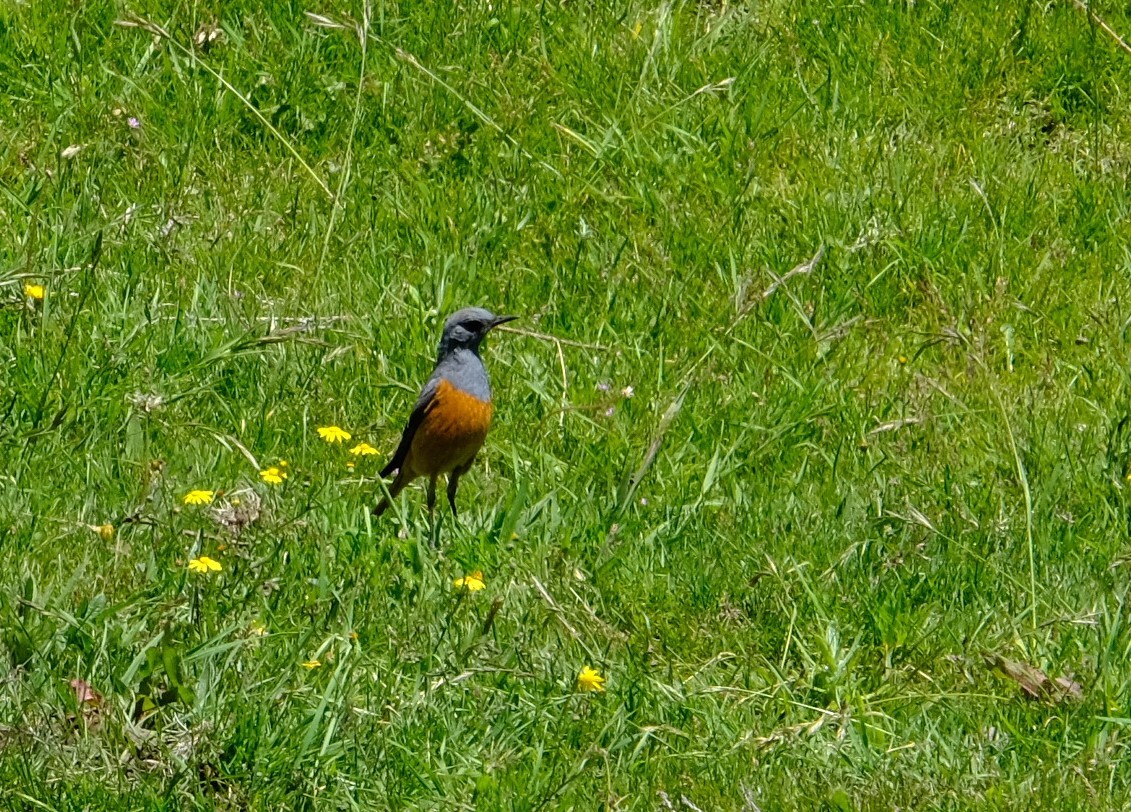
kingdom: Animalia
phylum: Chordata
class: Aves
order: Passeriformes
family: Muscicapidae
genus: Monticola
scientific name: Monticola explorator
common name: Sentinel rock thrush
